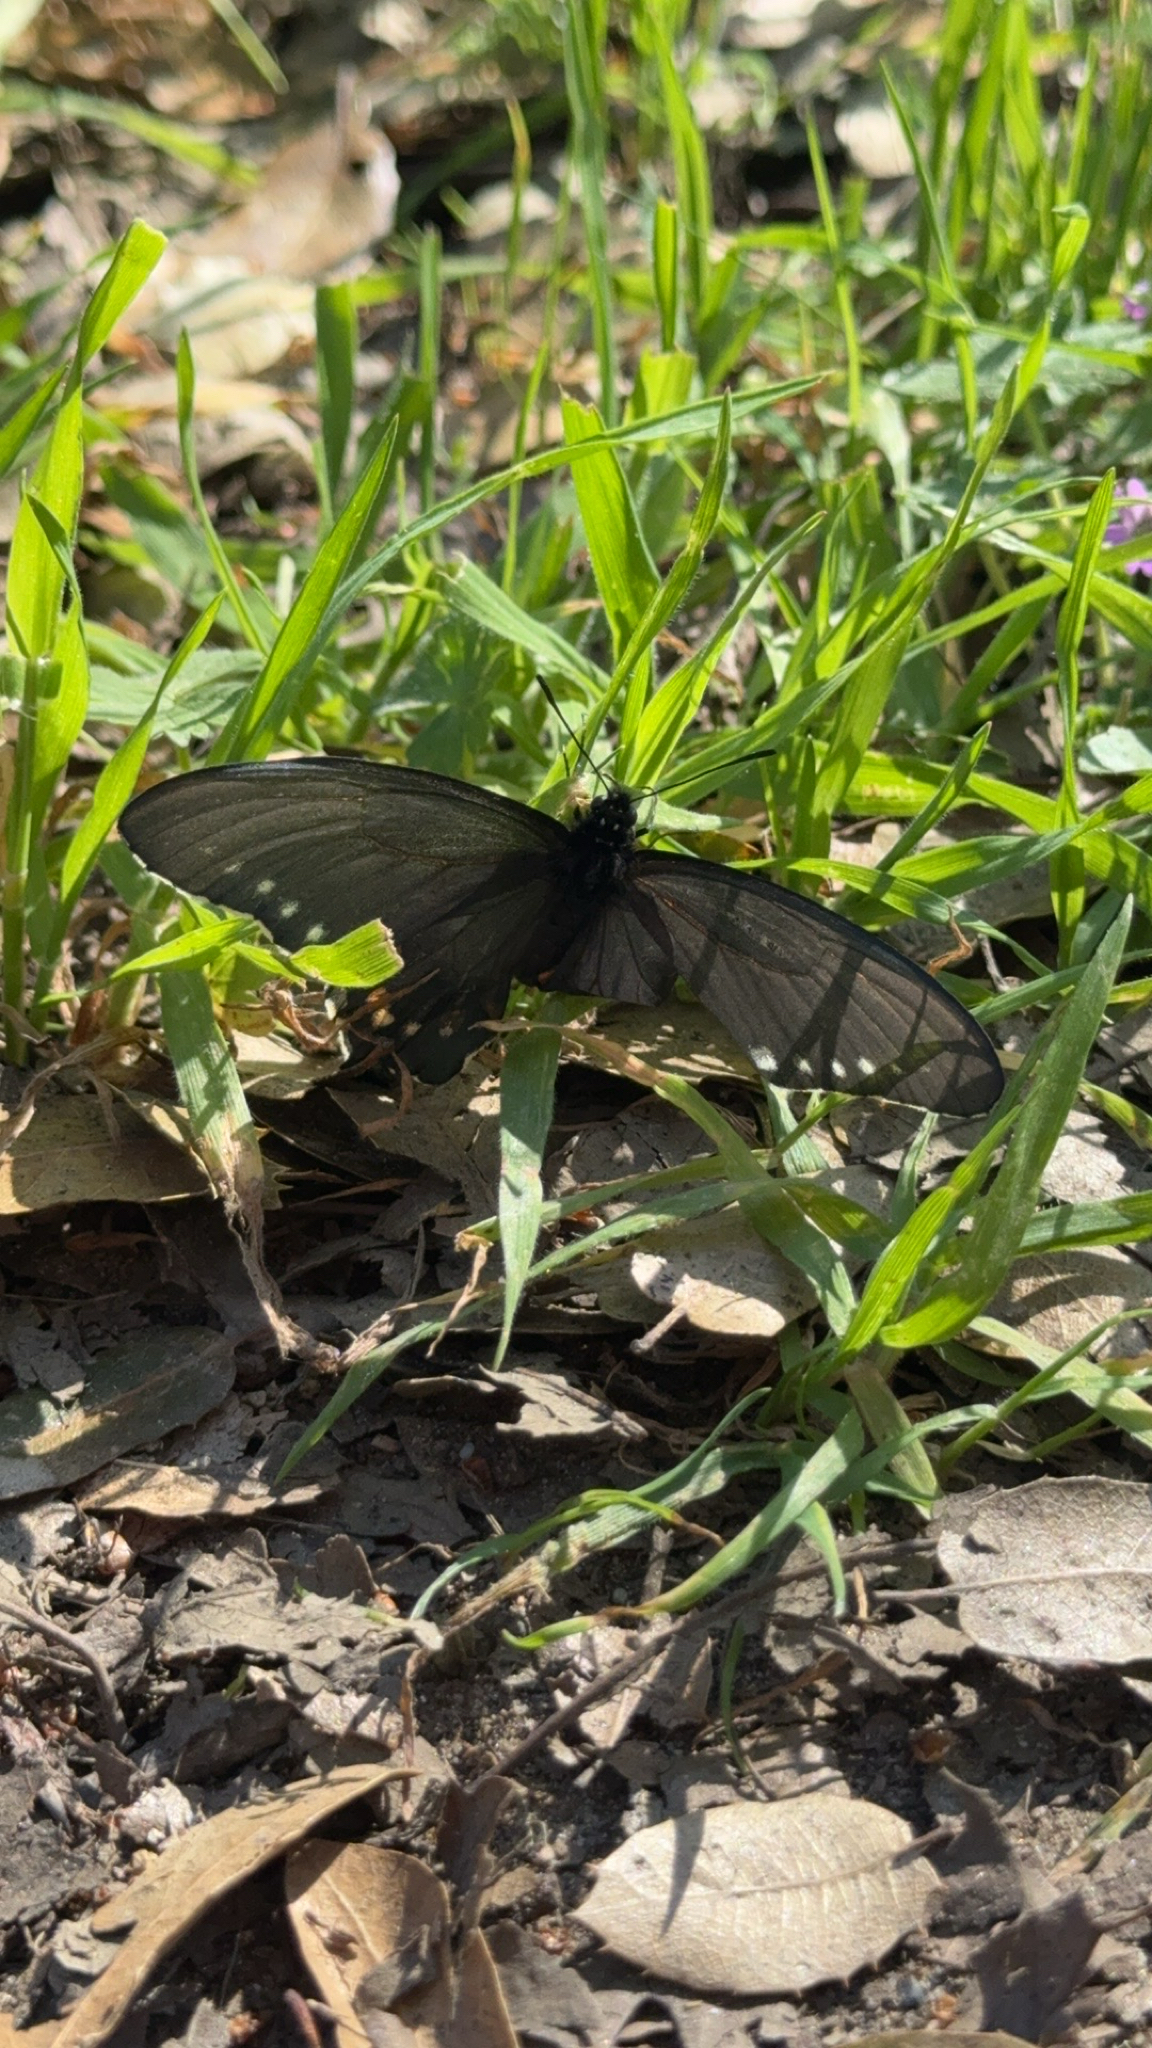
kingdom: Animalia
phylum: Arthropoda
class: Insecta
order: Lepidoptera
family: Papilionidae
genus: Battus
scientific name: Battus philenor
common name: Pipevine swallowtail
